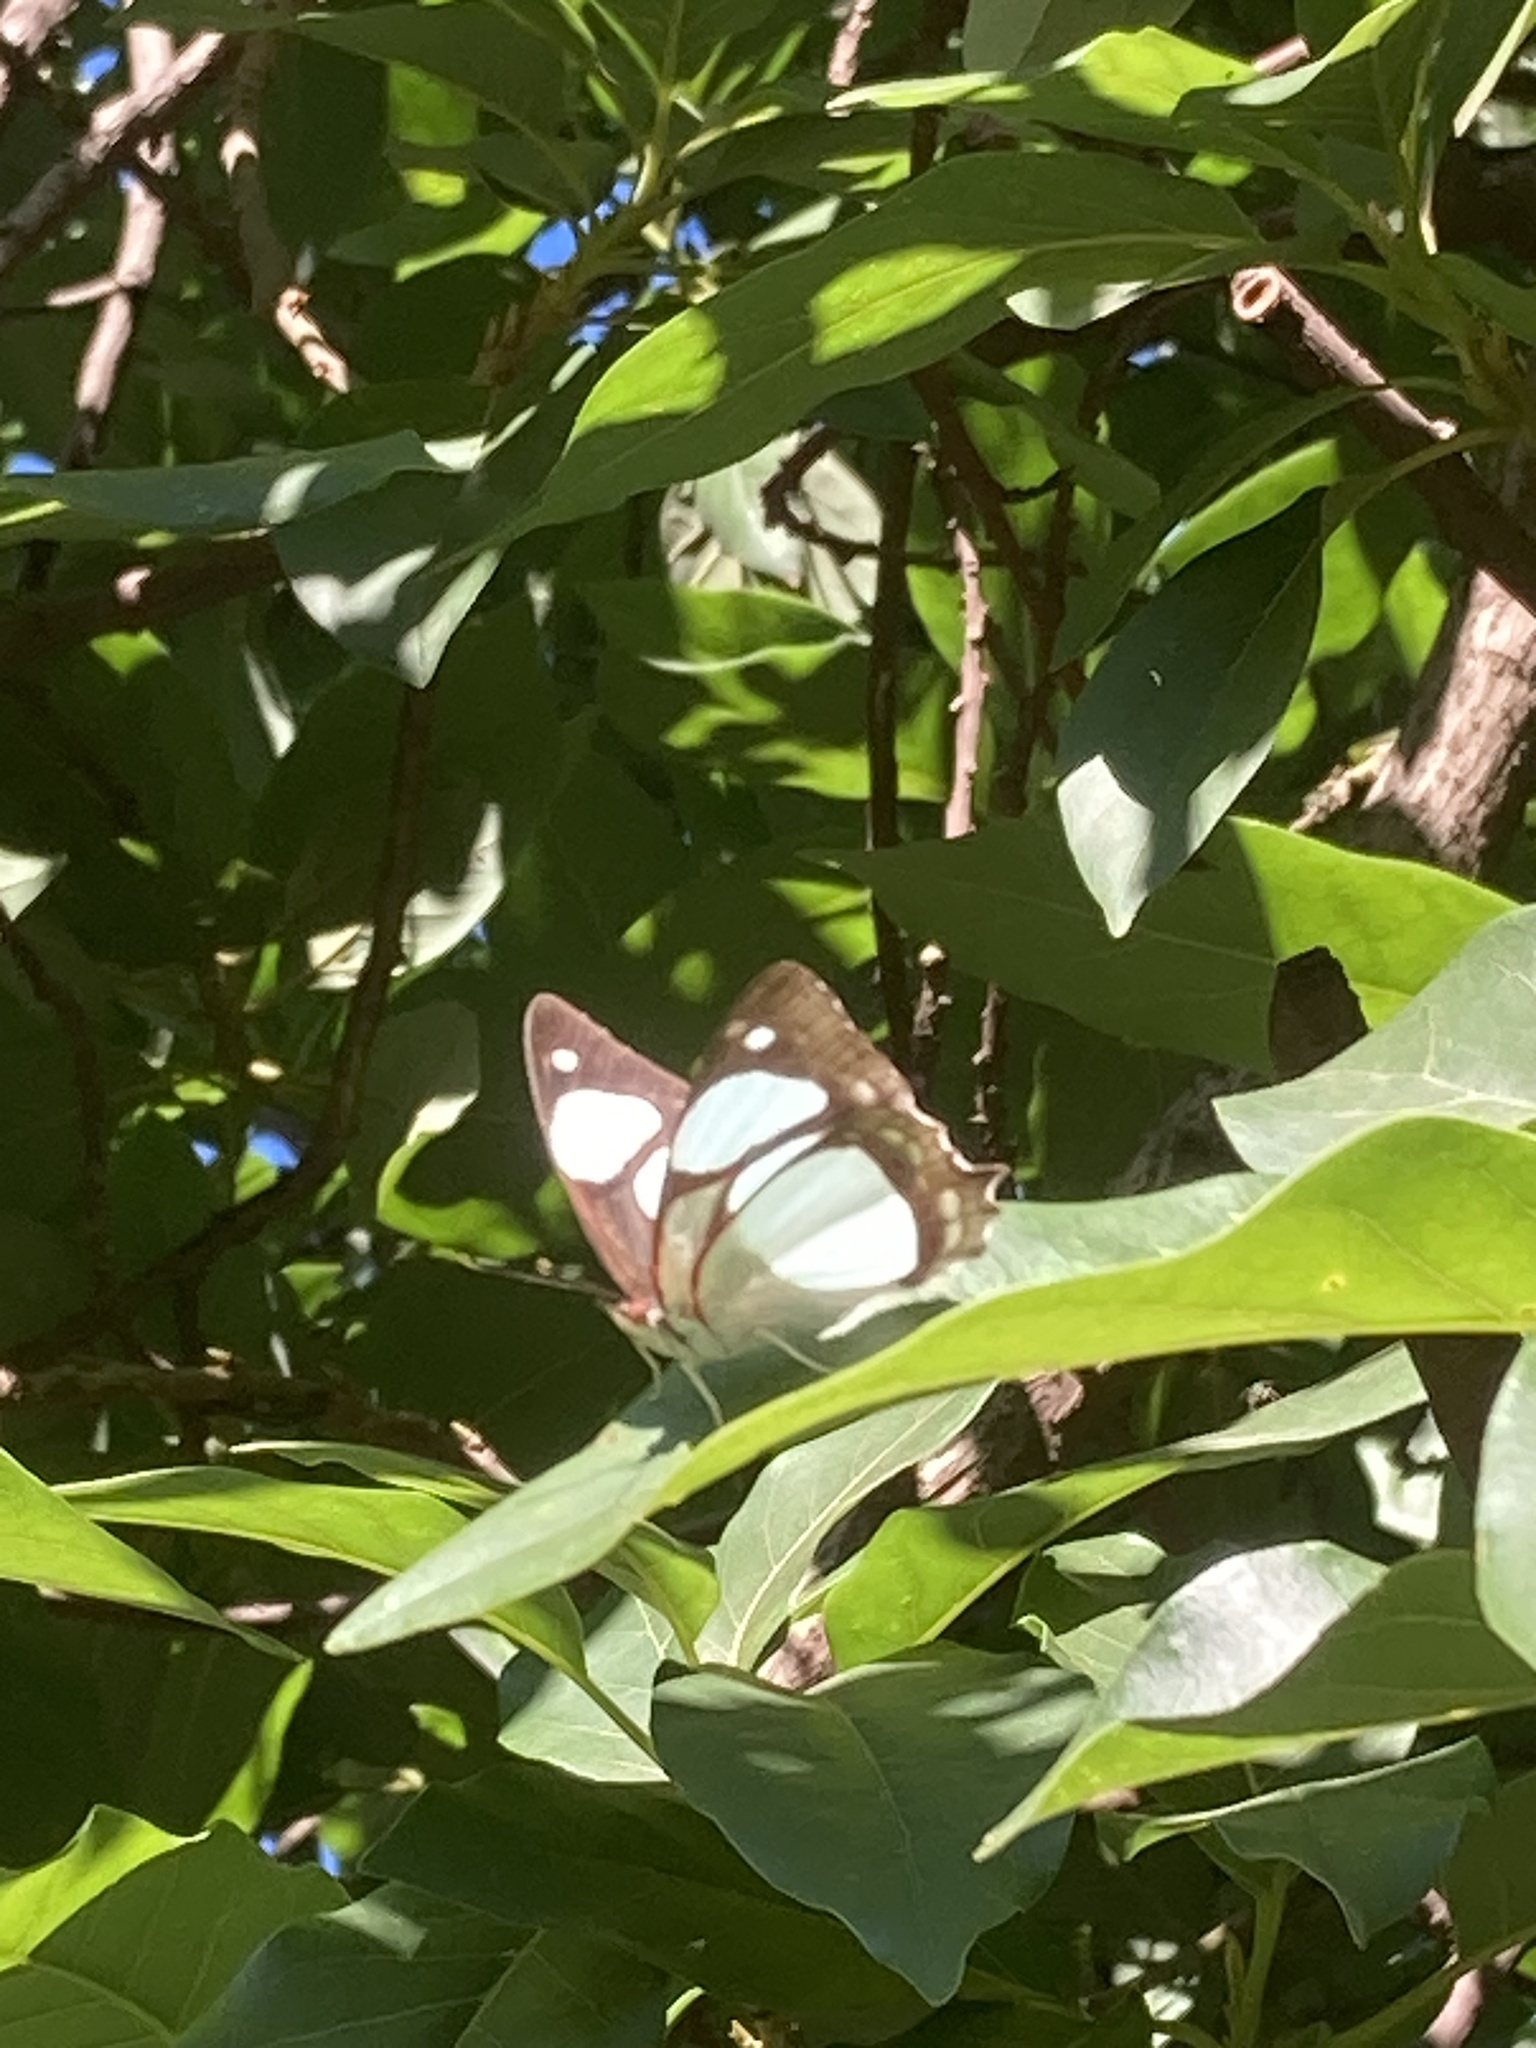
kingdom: Animalia
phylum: Arthropoda
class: Insecta
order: Lepidoptera
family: Nymphalidae
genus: Pyrrhogyra
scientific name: Pyrrhogyra neaerea
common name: Leading red-ring
